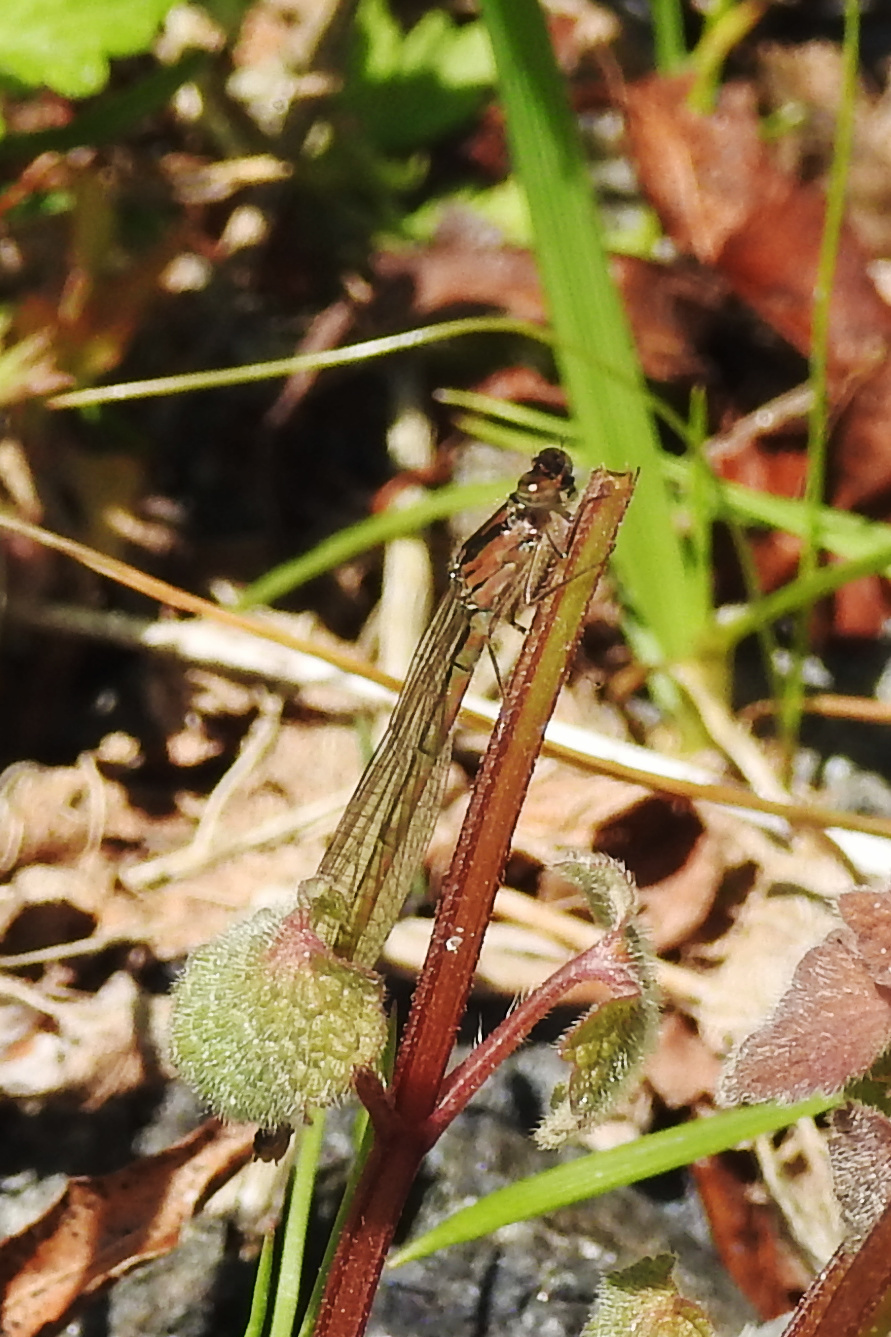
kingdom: Animalia
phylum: Arthropoda
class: Insecta
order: Odonata
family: Coenagrionidae
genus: Ischnura
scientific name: Ischnura posita
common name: Fragile forktail
